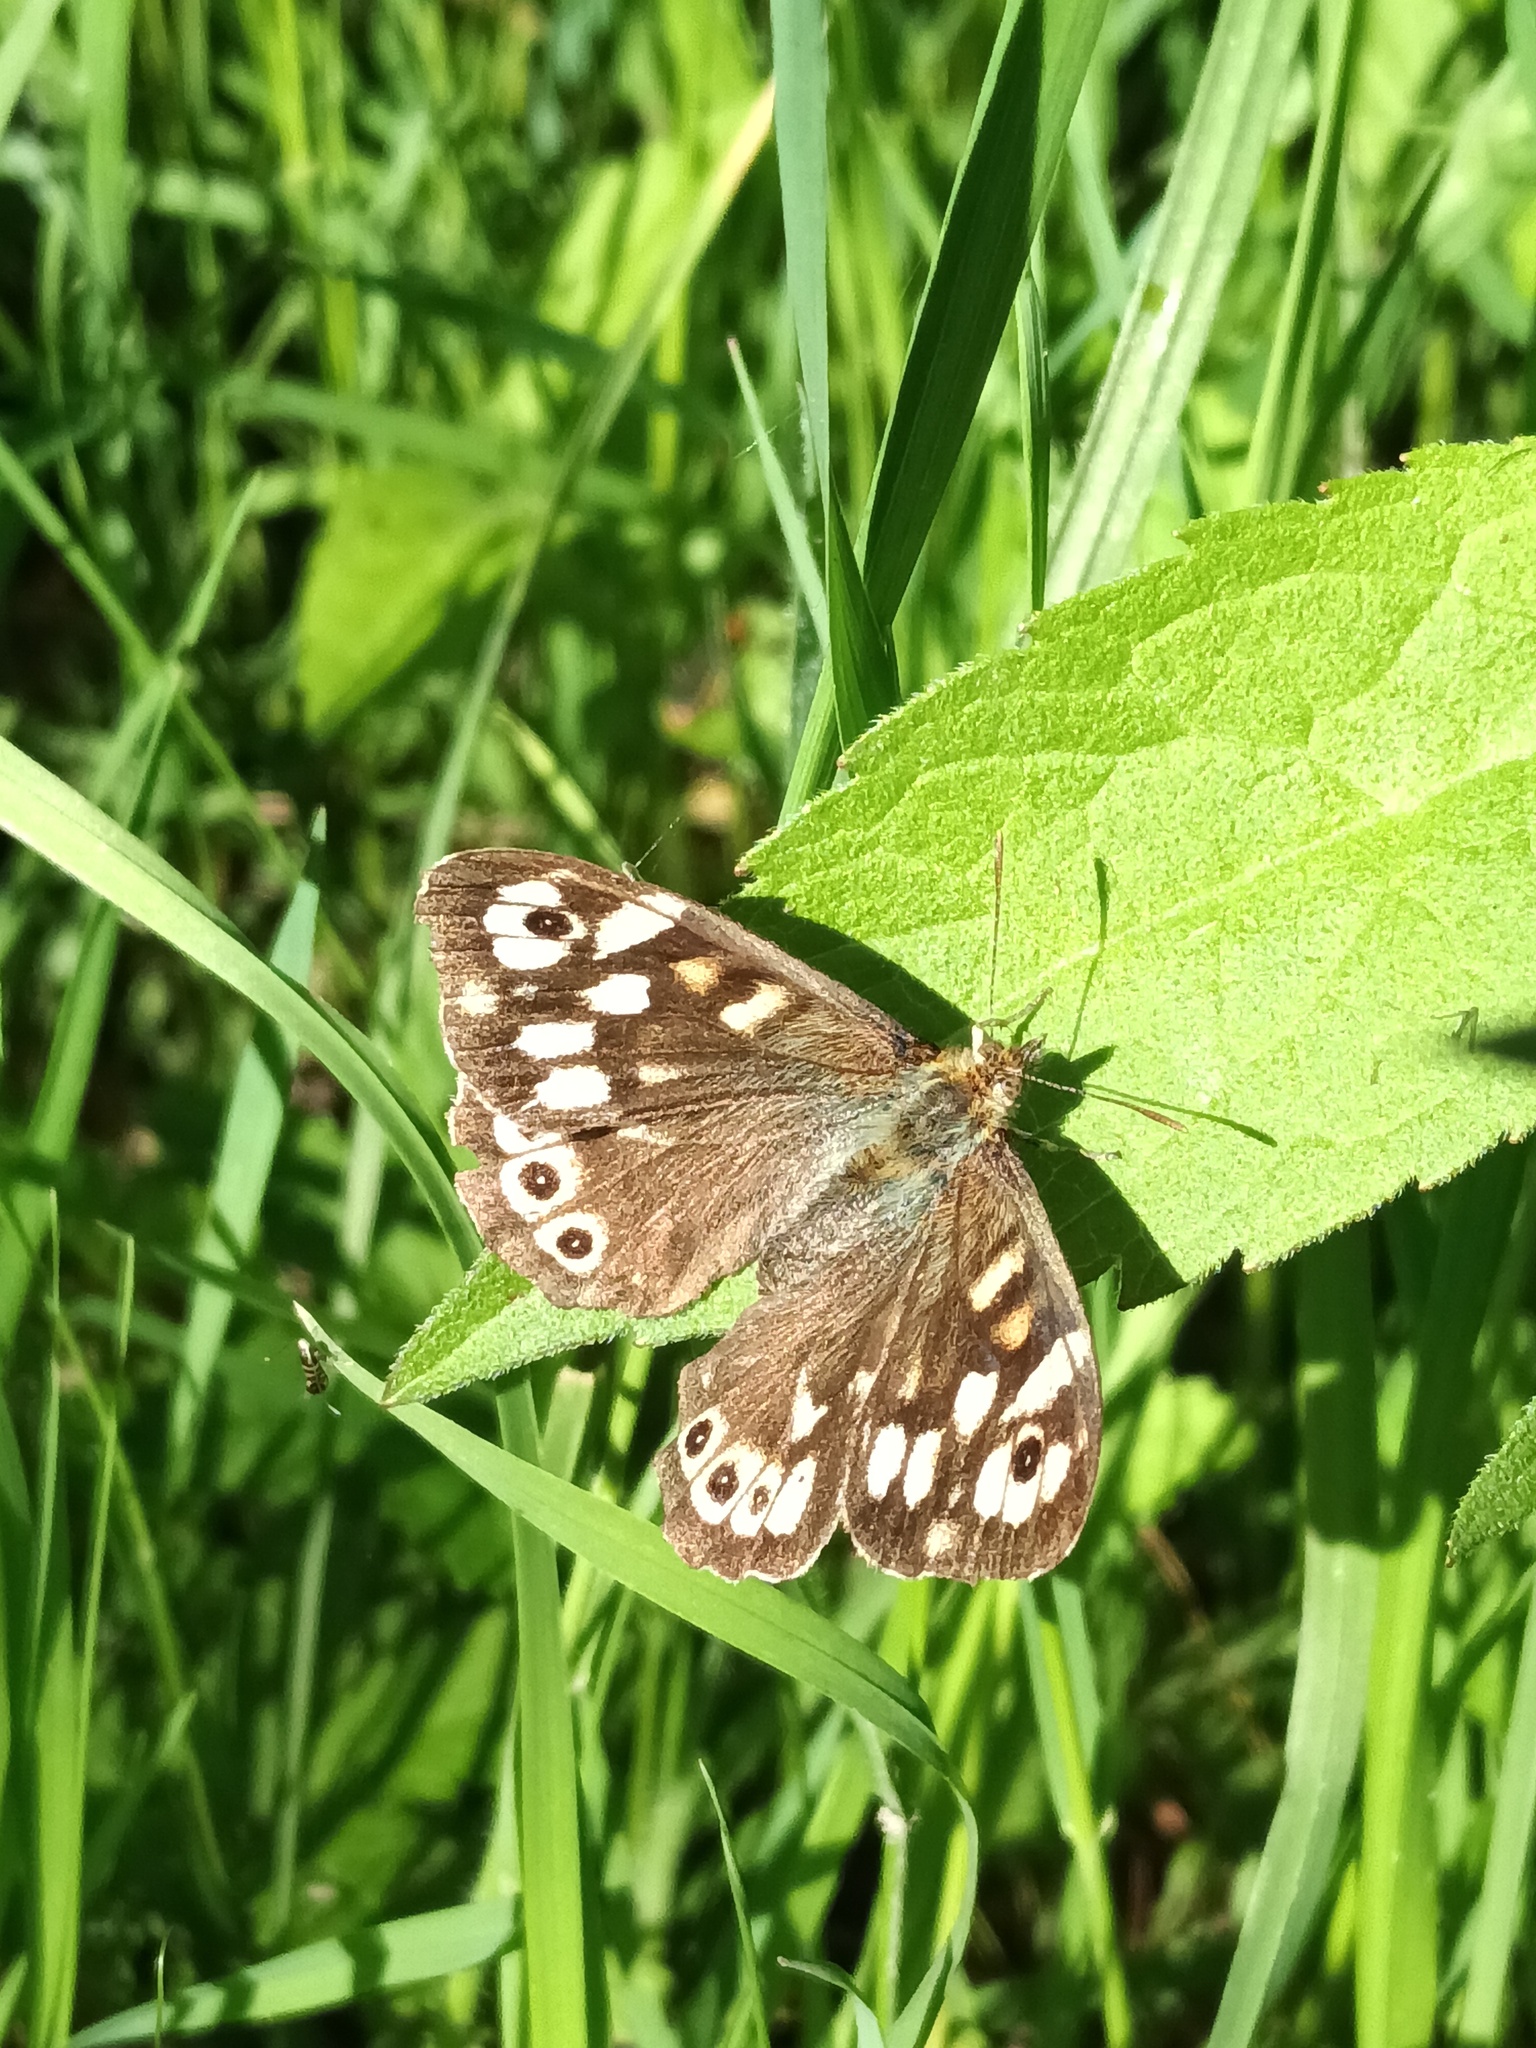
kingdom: Animalia
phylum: Arthropoda
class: Insecta
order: Lepidoptera
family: Nymphalidae
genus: Pararge
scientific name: Pararge aegeria
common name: Speckled wood
